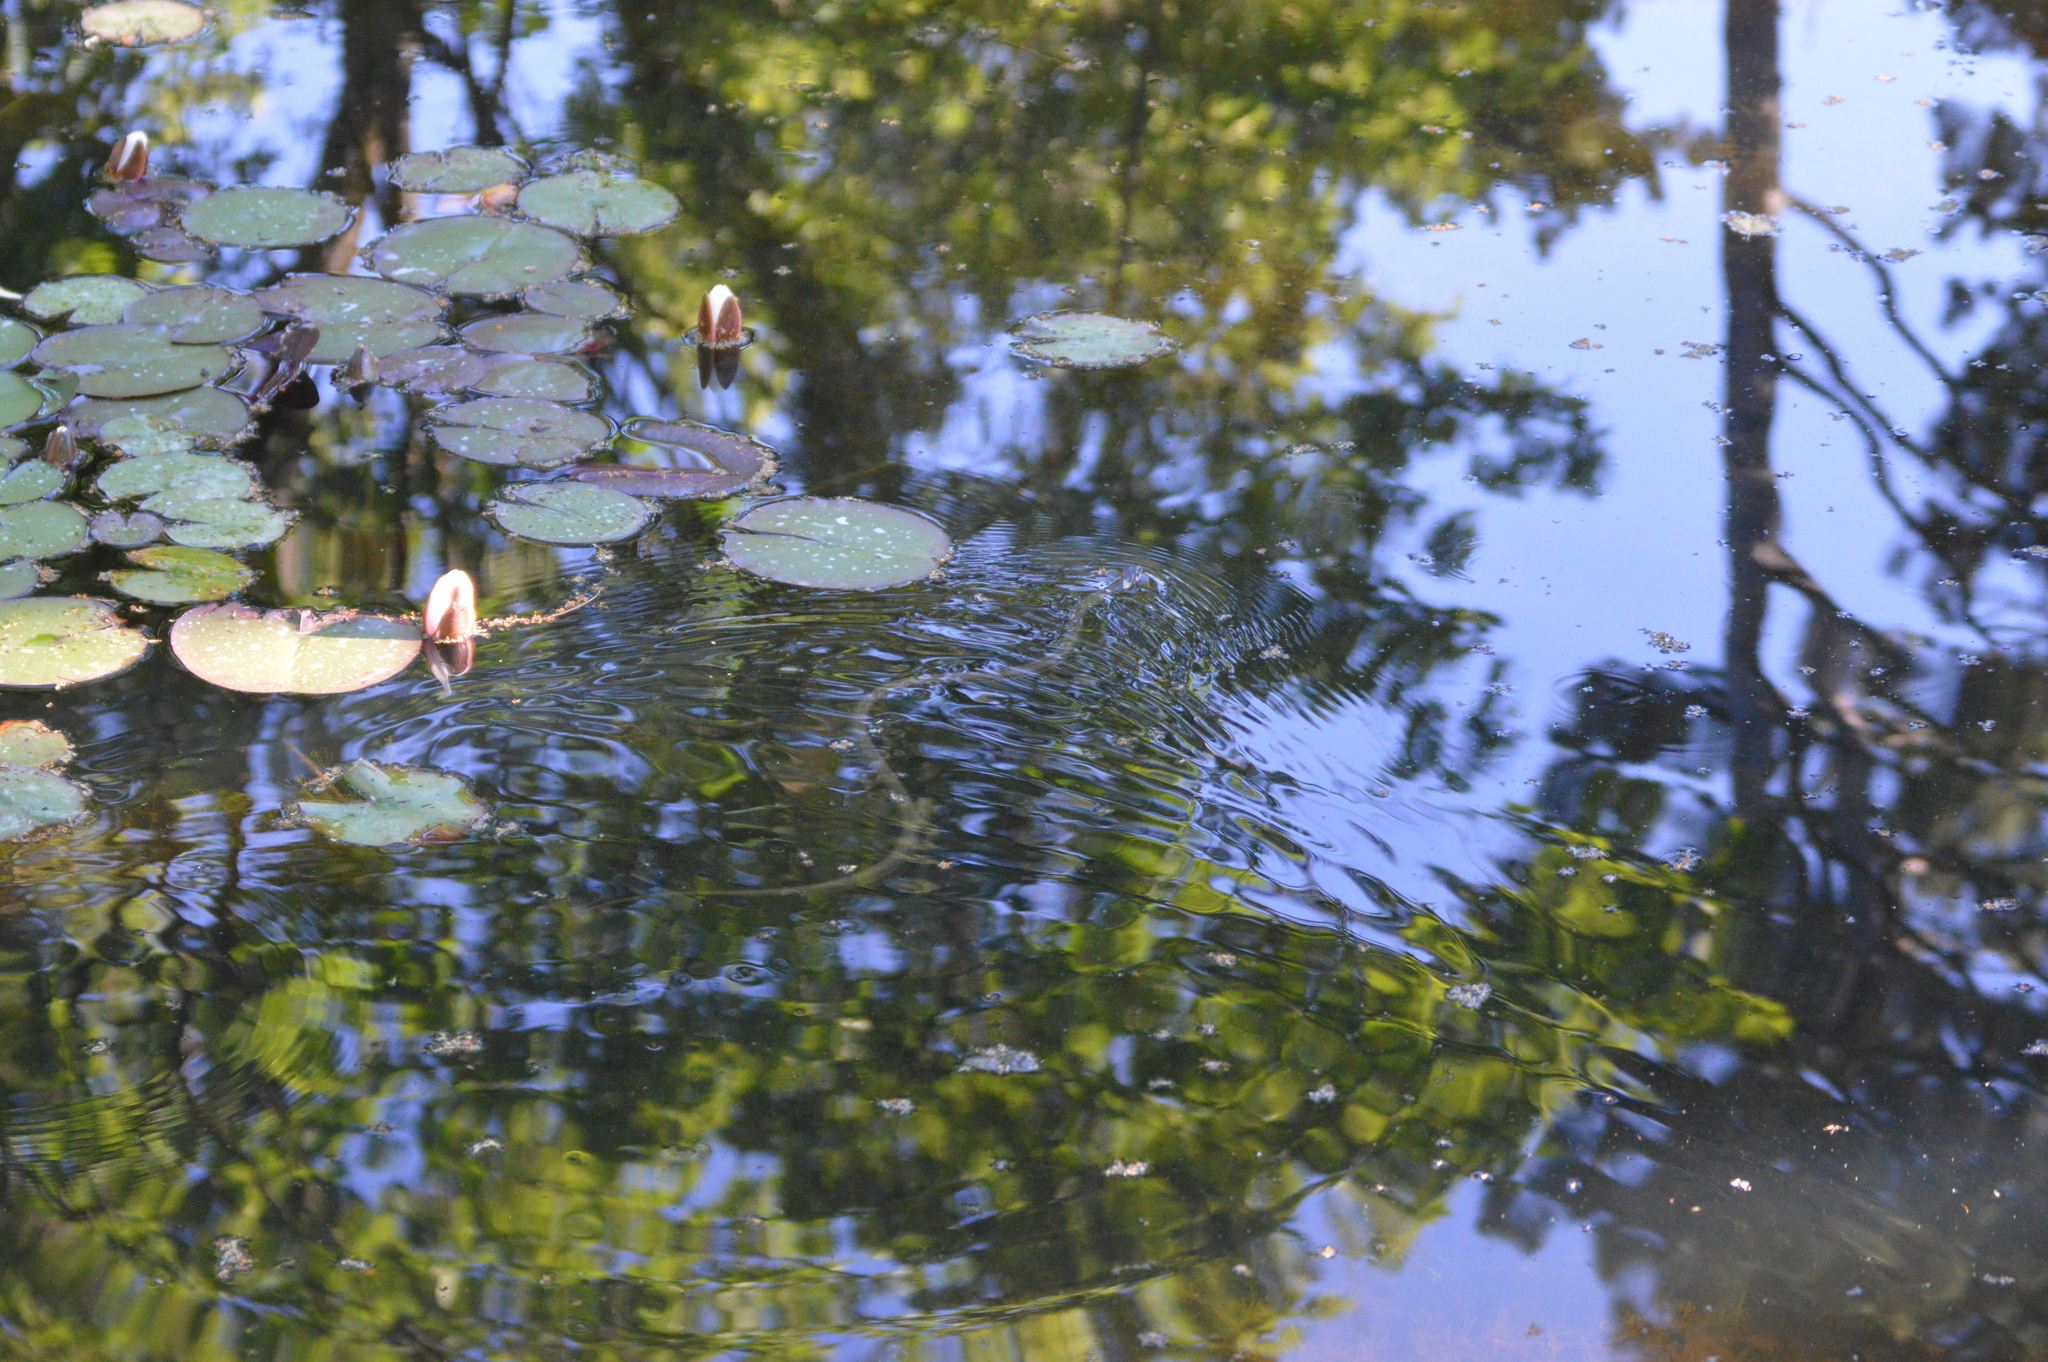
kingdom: Animalia
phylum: Chordata
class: Squamata
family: Colubridae
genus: Natrix
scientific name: Natrix natrix
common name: Grass snake
